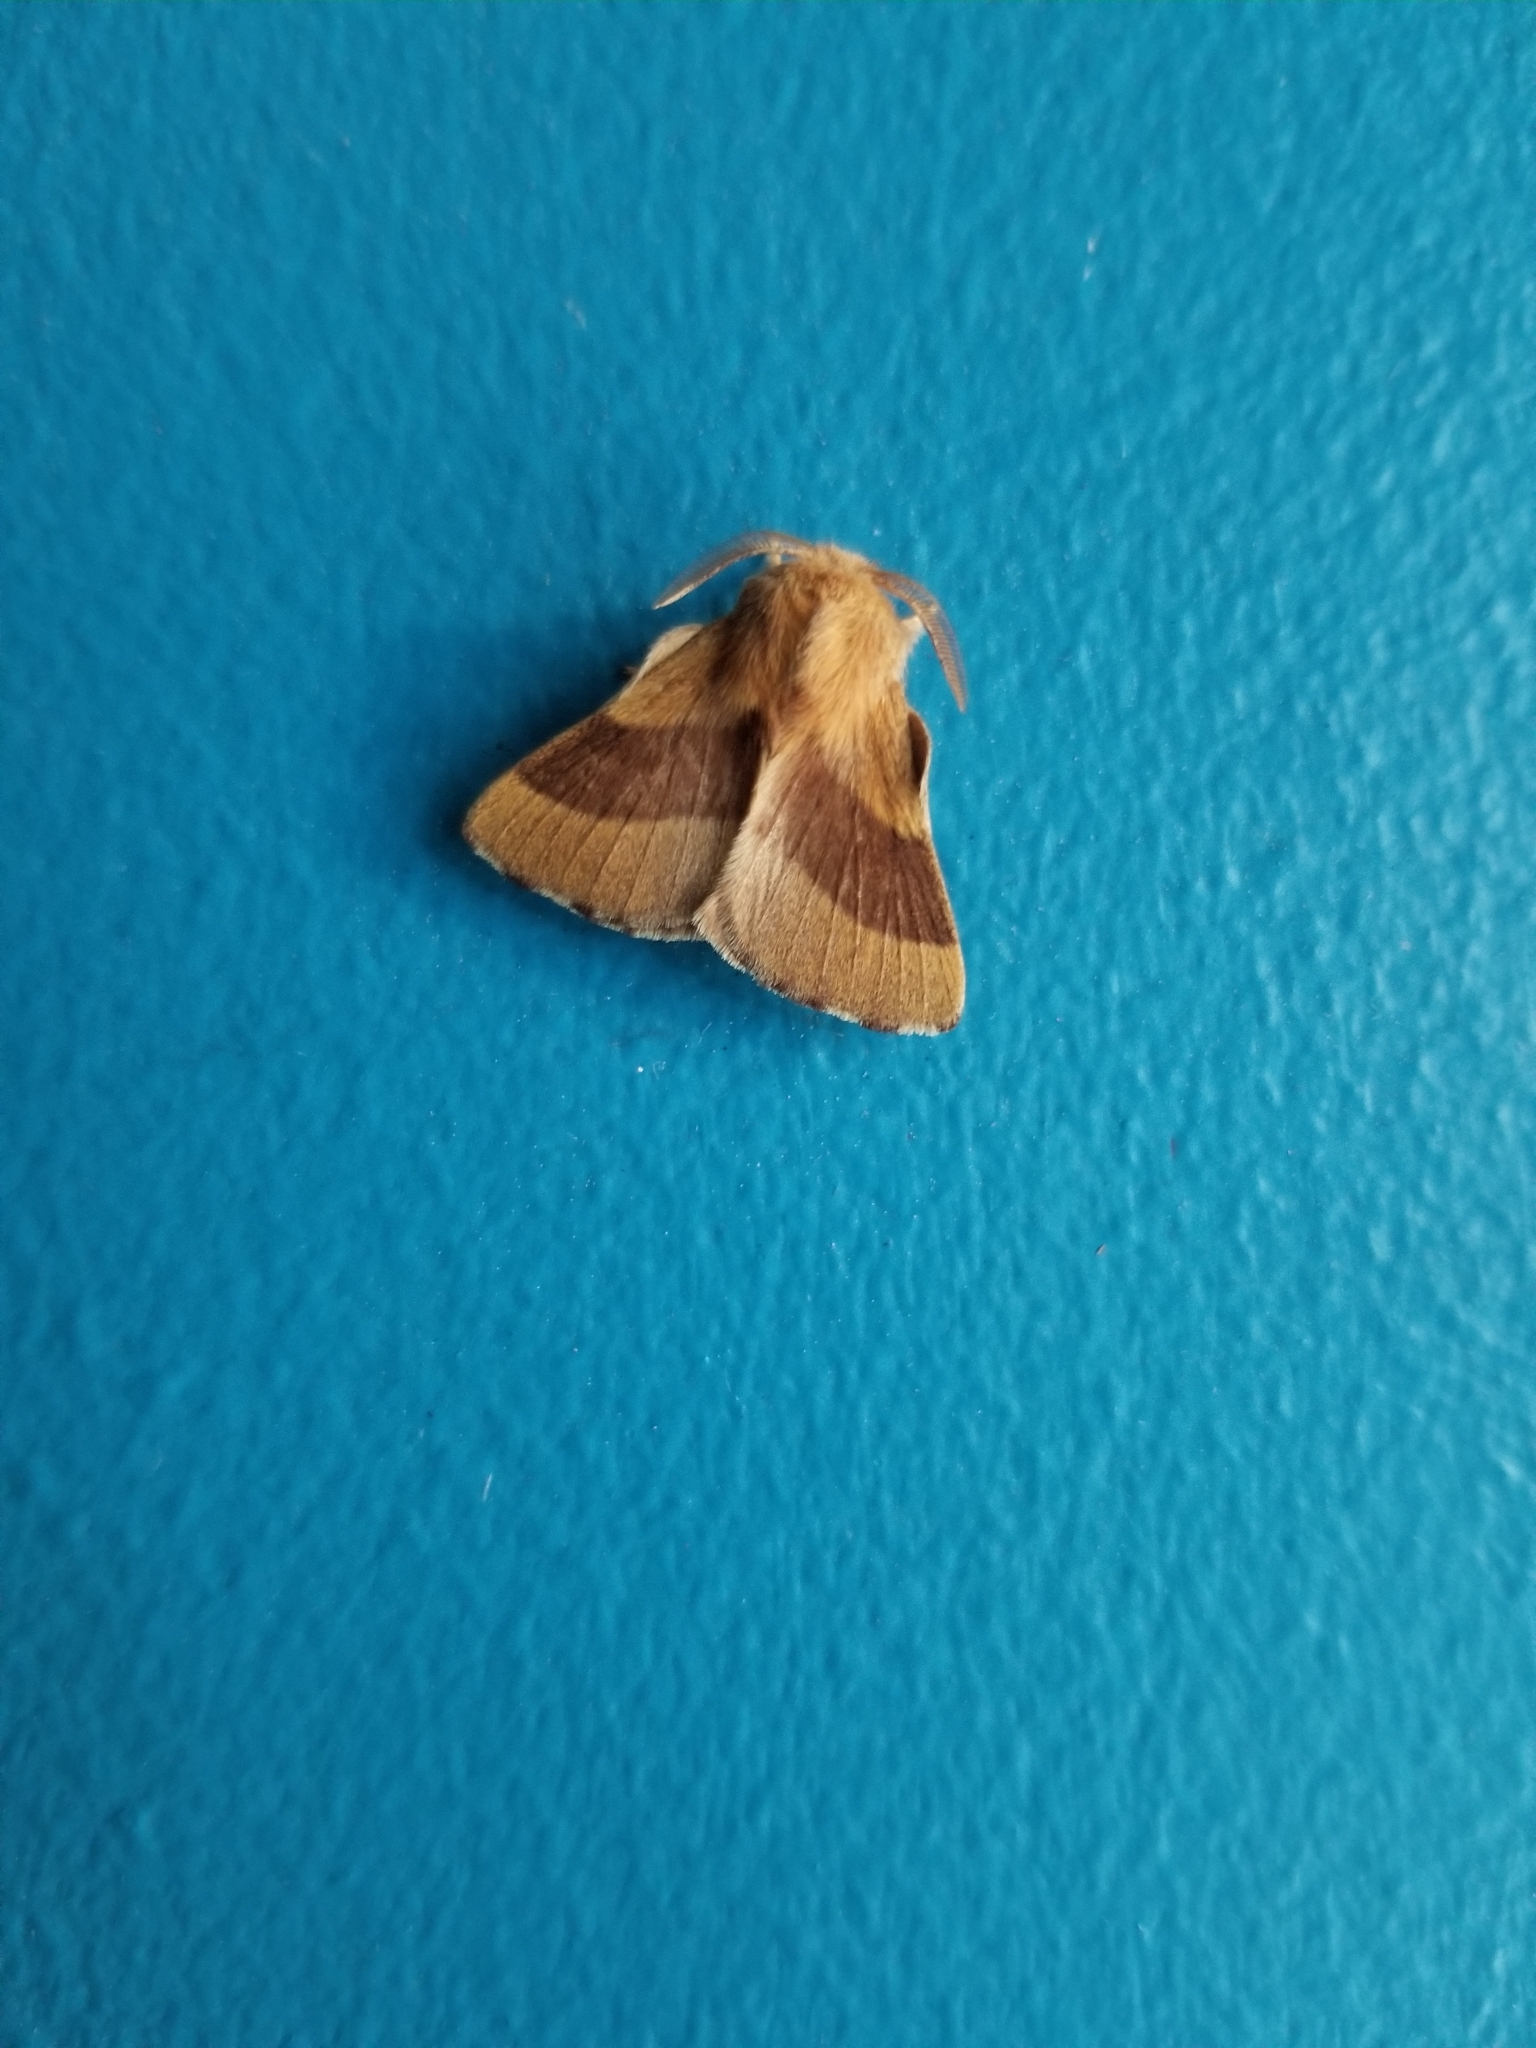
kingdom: Animalia
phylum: Arthropoda
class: Insecta
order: Lepidoptera
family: Lasiocampidae
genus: Malacosoma
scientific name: Malacosoma disstria
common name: Forest tent caterpillar
